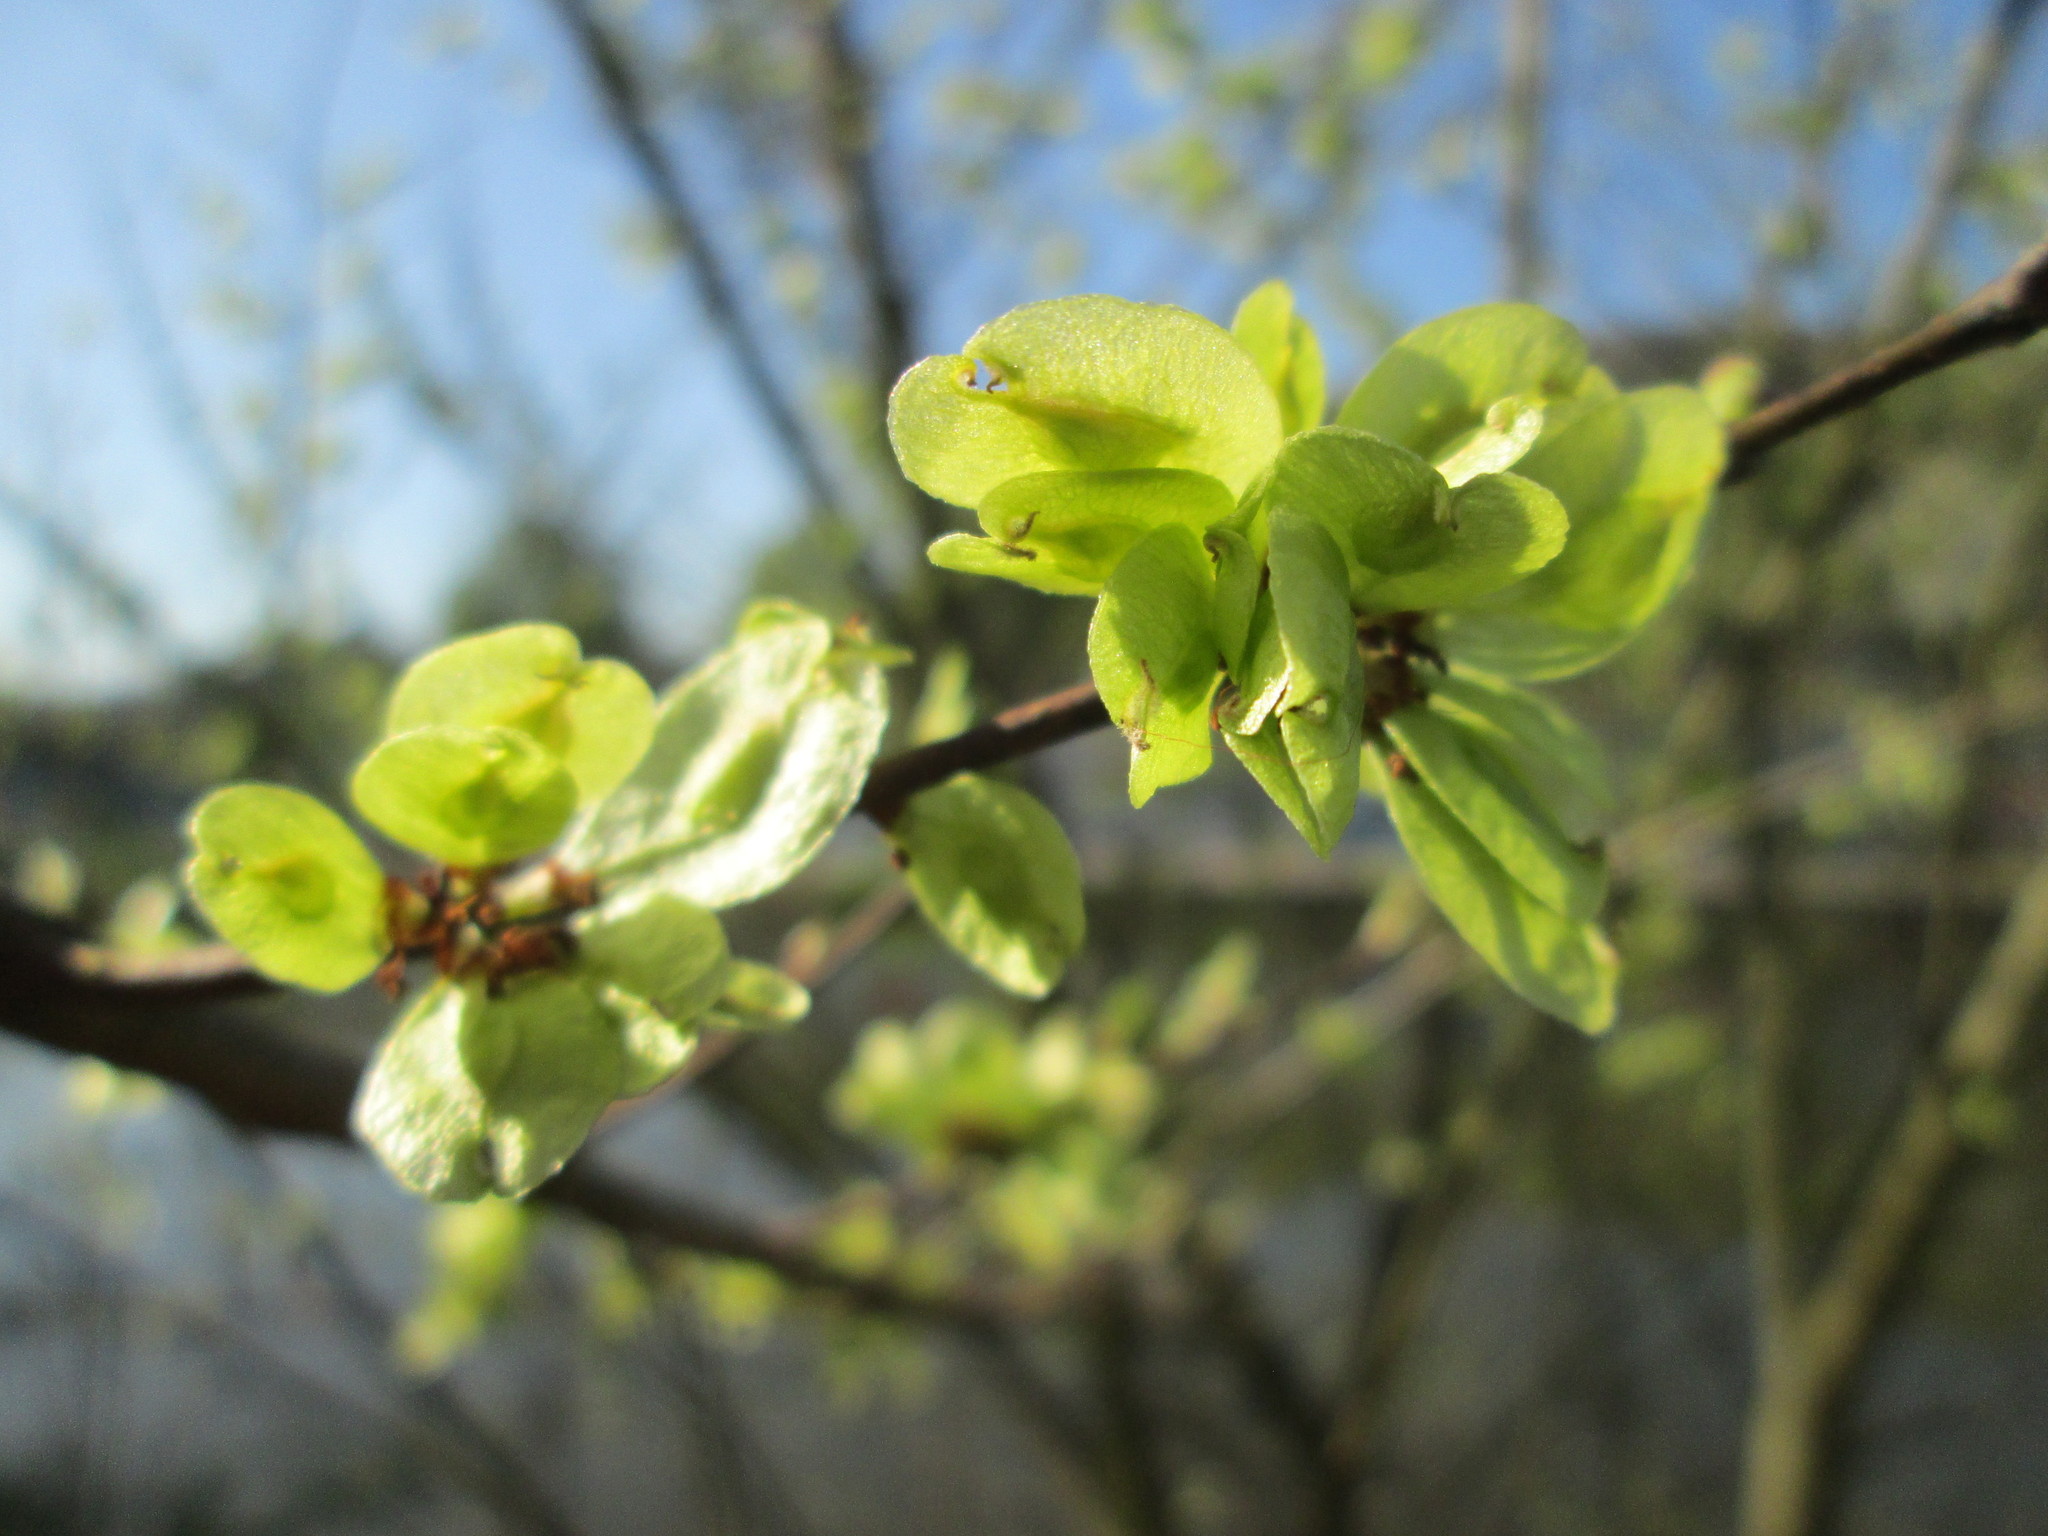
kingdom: Plantae
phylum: Tracheophyta
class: Magnoliopsida
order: Rosales
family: Ulmaceae
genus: Ulmus
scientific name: Ulmus minor
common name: Small-leaved elm
